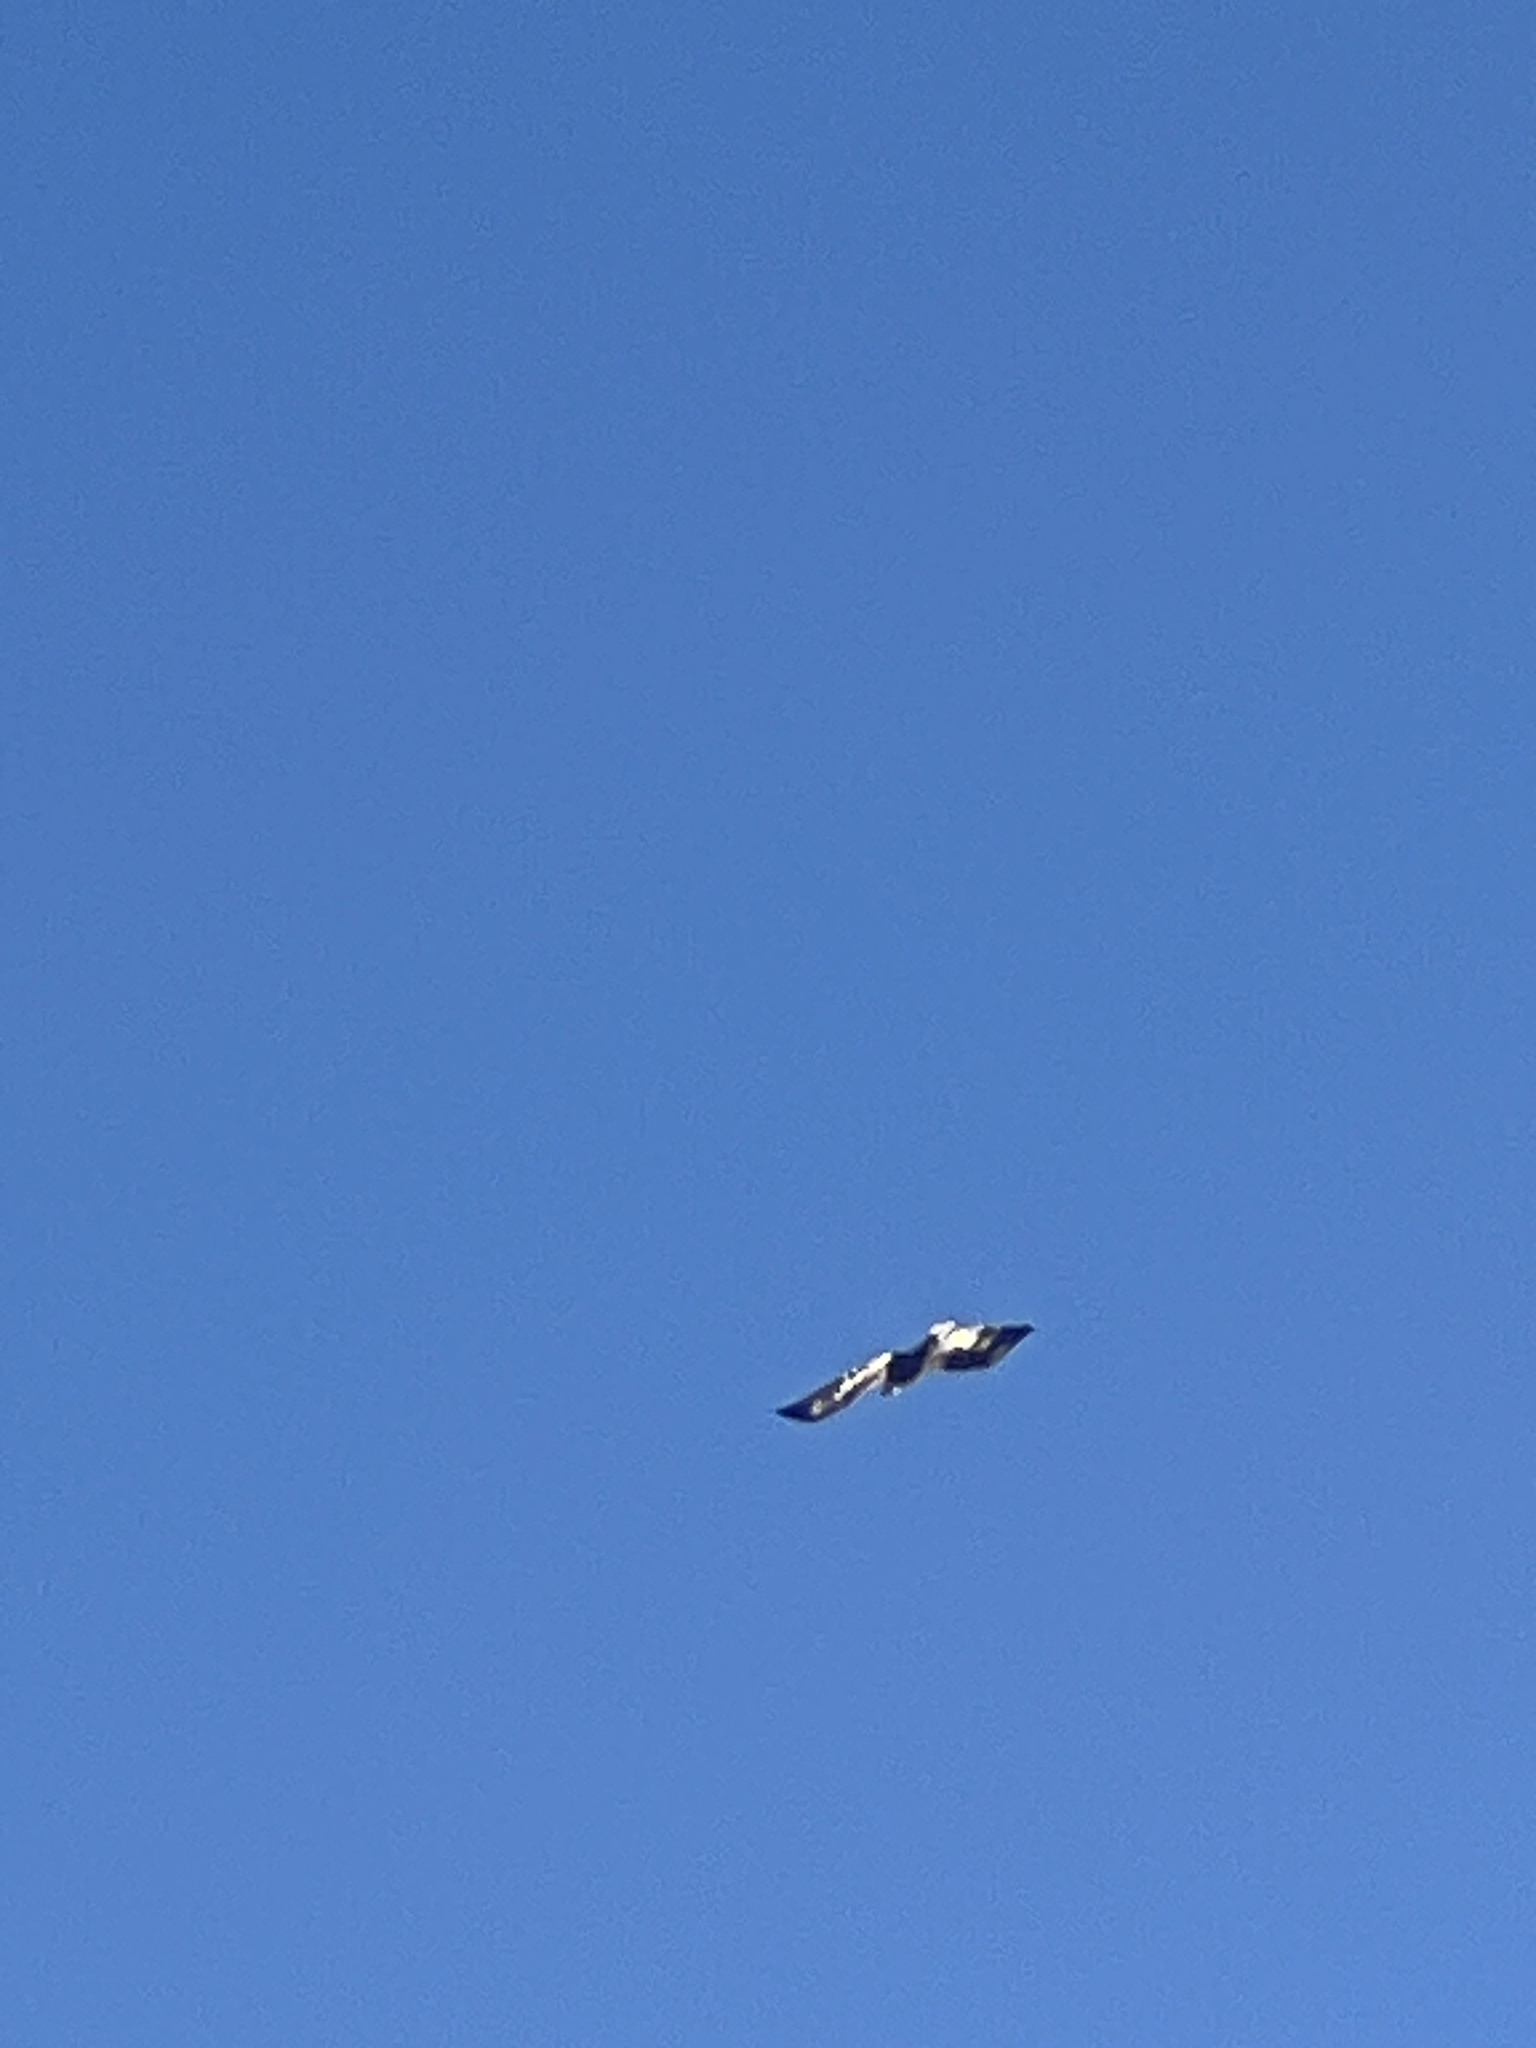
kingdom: Animalia
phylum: Chordata
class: Aves
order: Accipitriformes
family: Accipitridae
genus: Haliaeetus
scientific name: Haliaeetus leucocephalus
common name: Bald eagle
